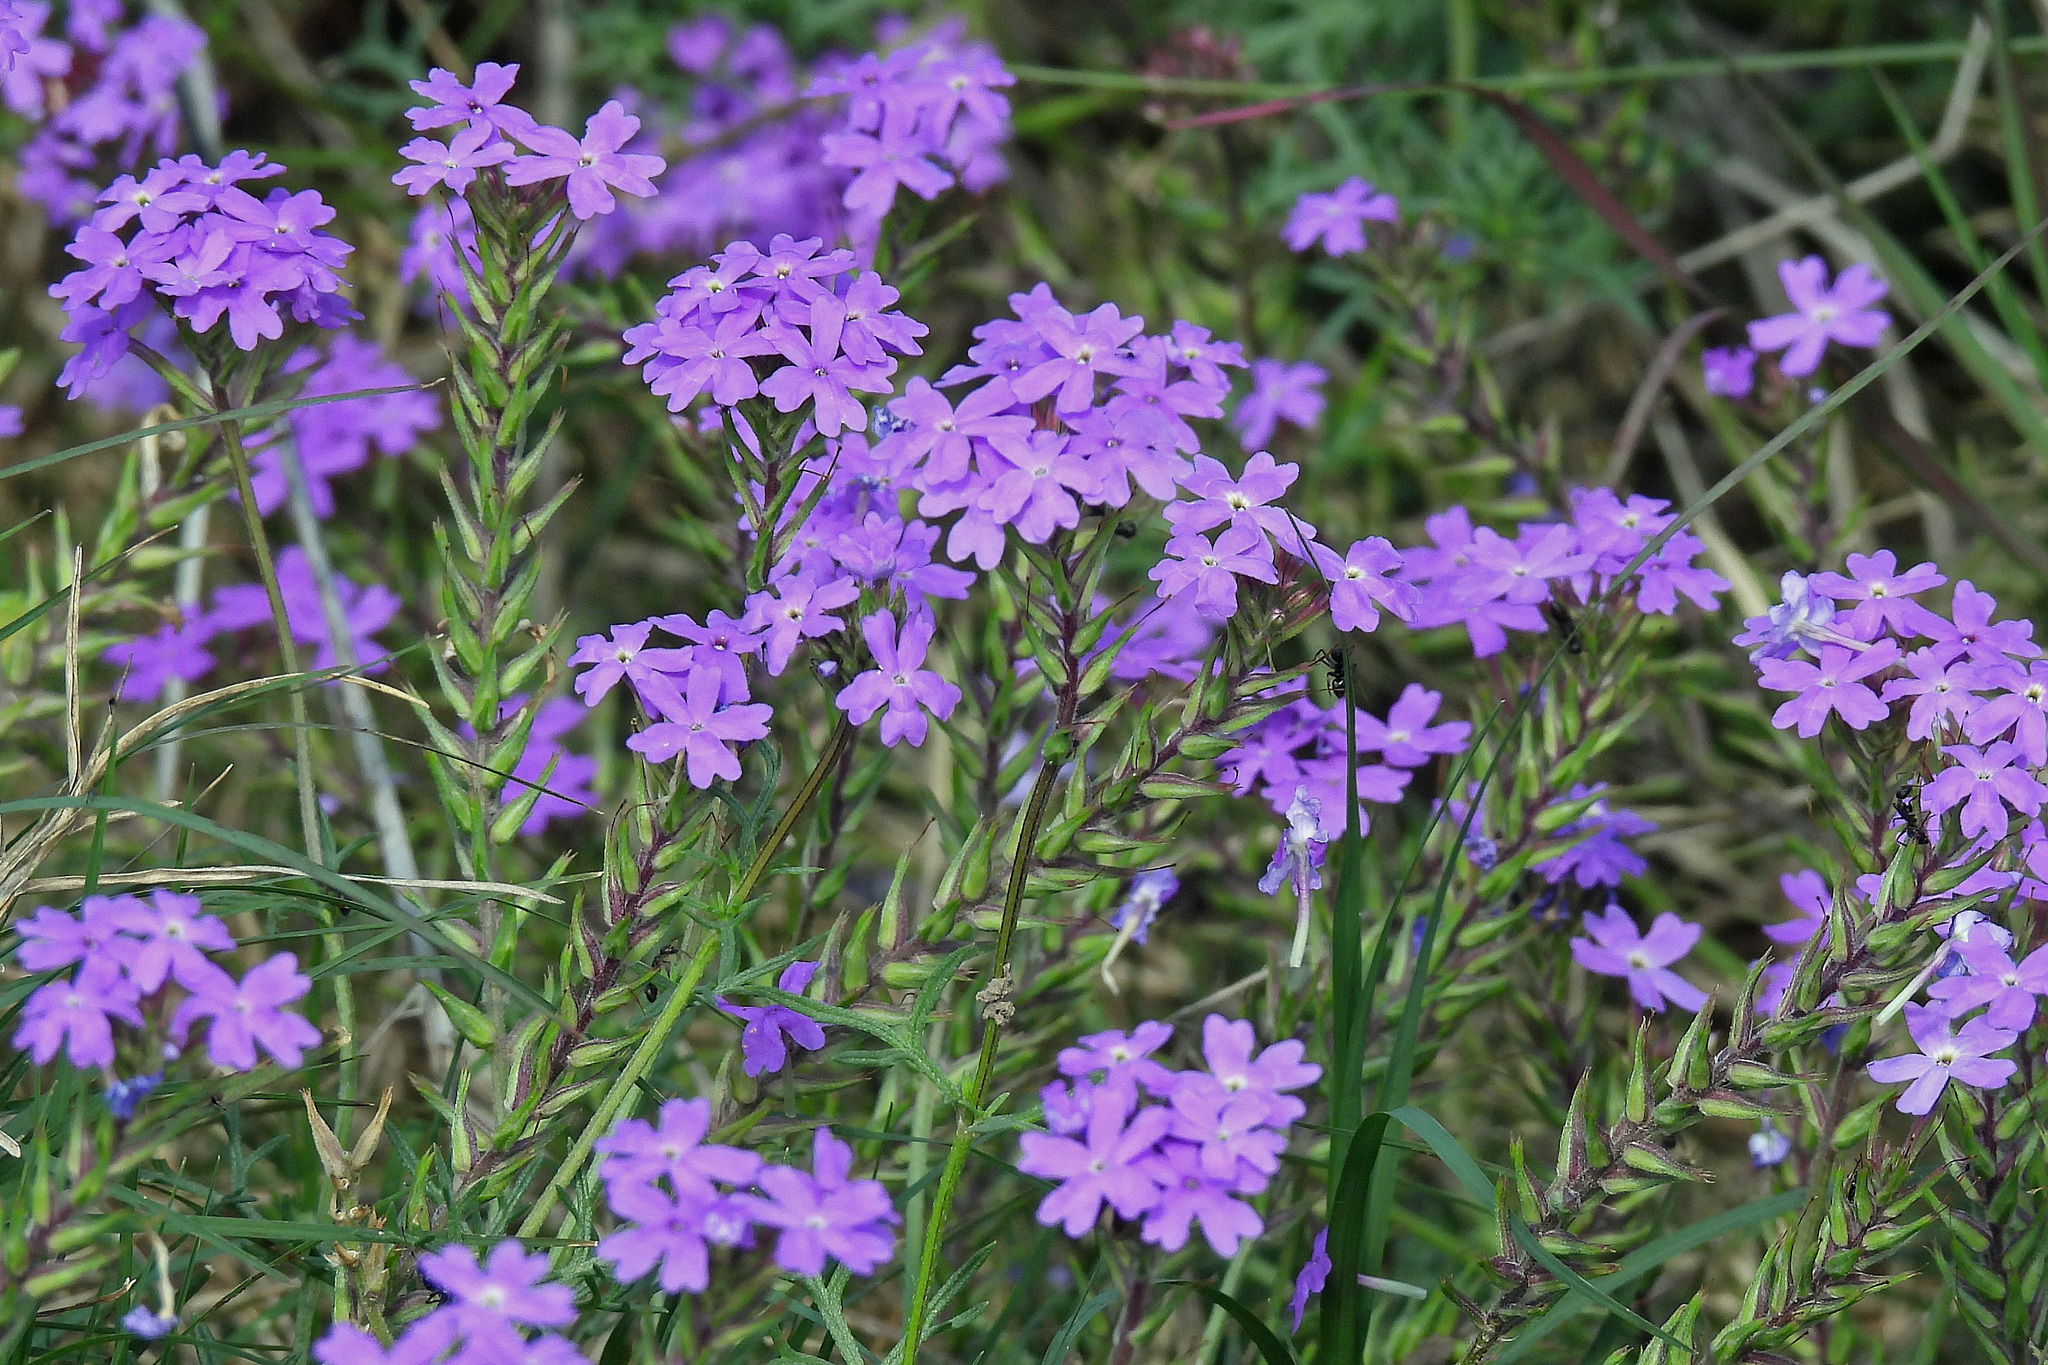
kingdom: Plantae
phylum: Tracheophyta
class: Magnoliopsida
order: Lamiales
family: Verbenaceae
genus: Verbena
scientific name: Verbena aristigera
